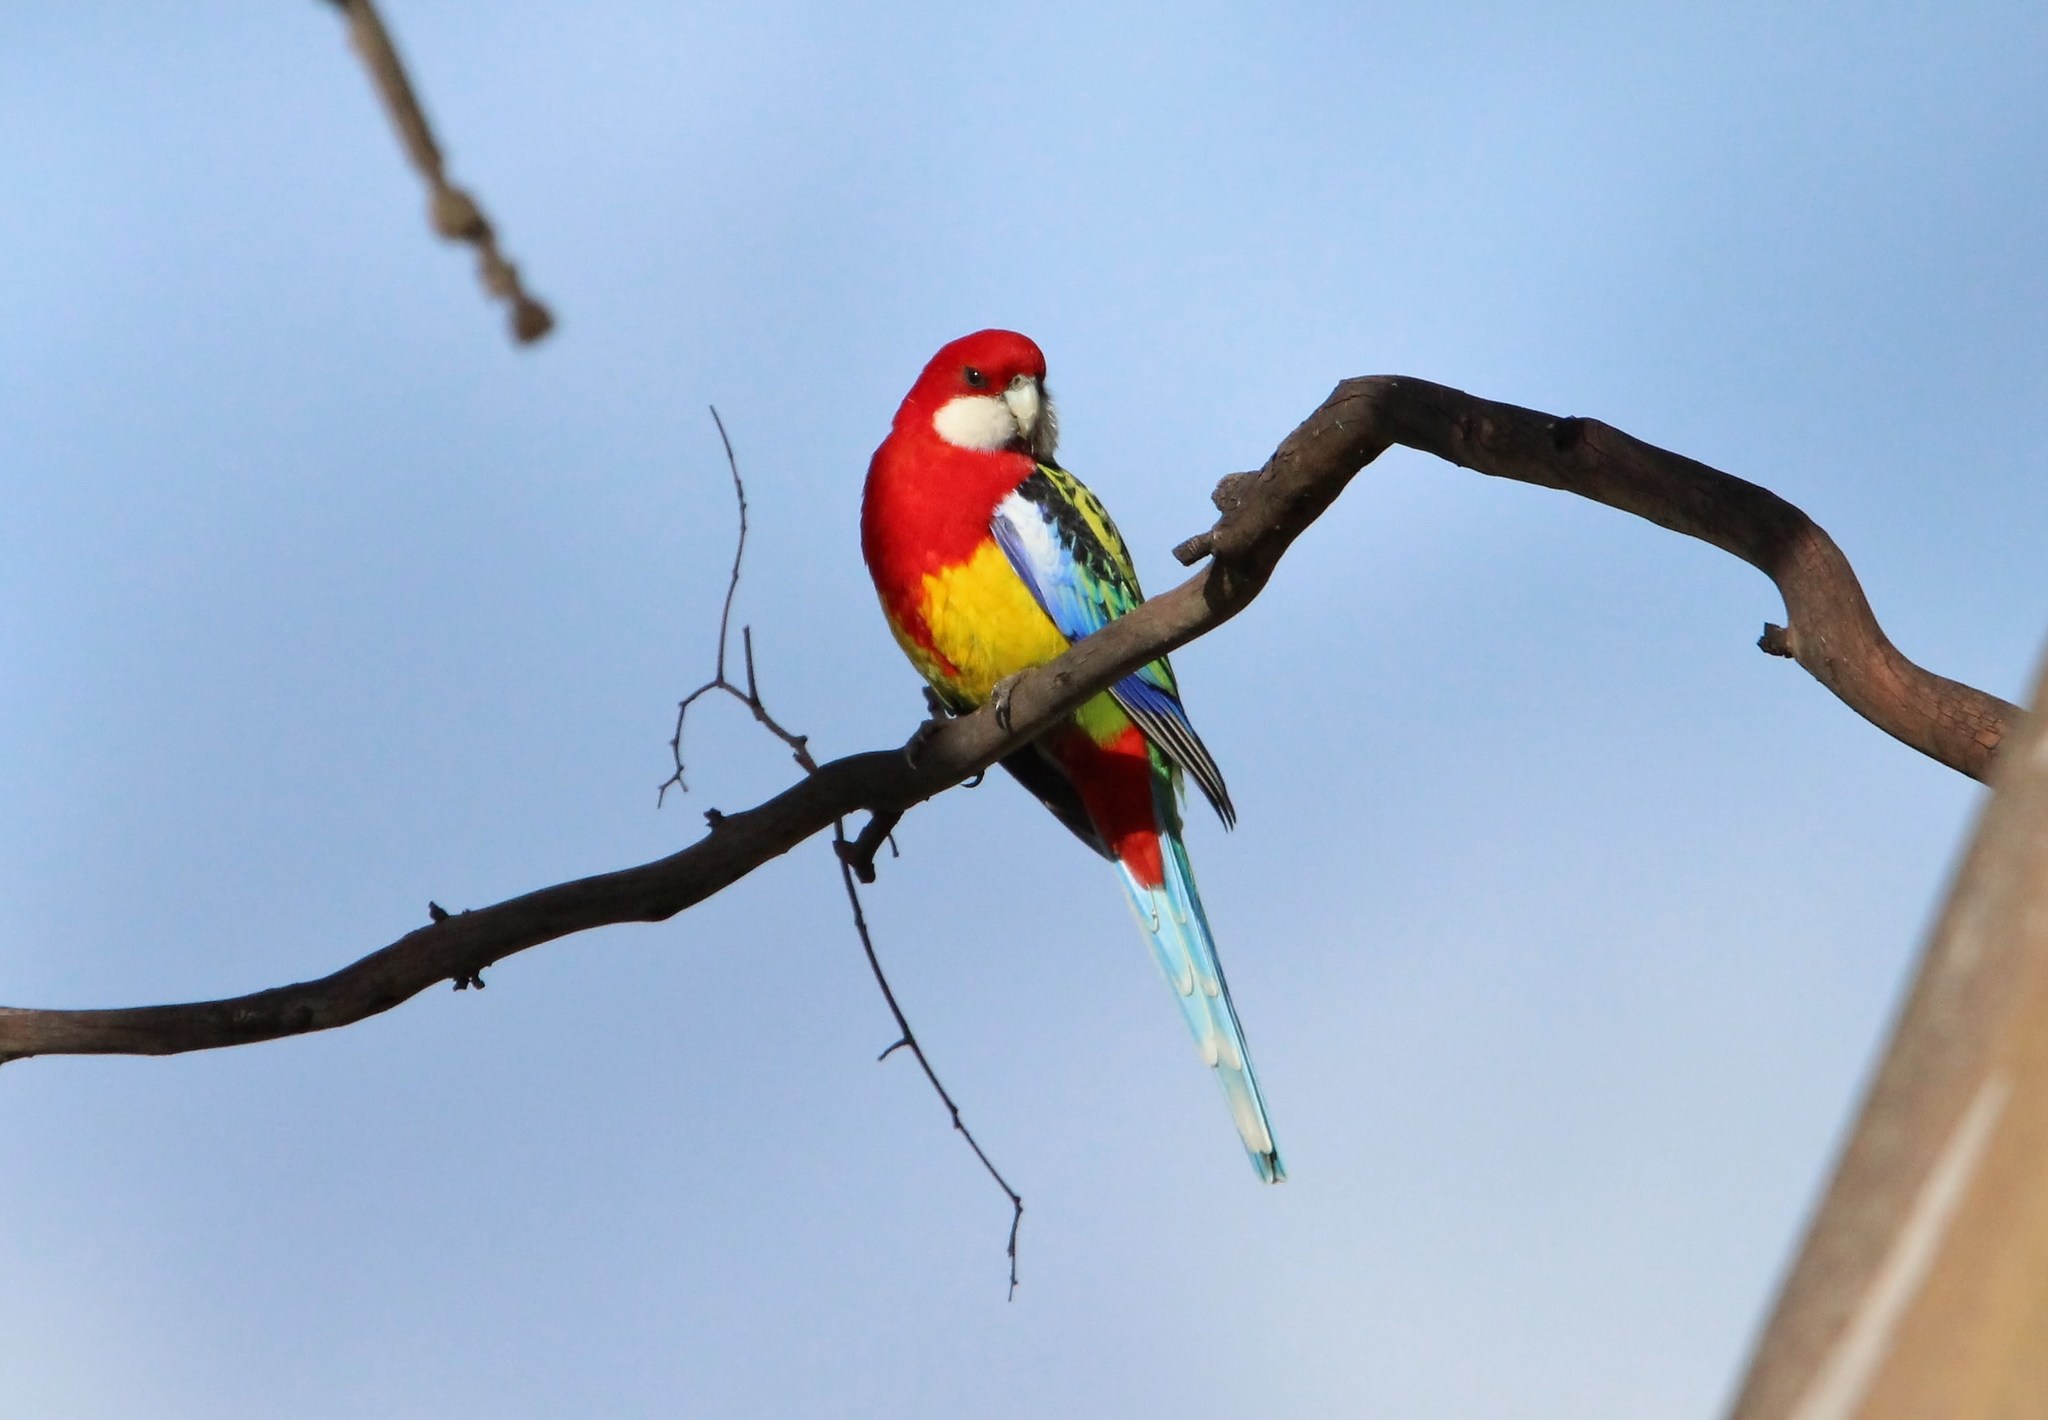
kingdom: Animalia
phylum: Chordata
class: Aves
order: Psittaciformes
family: Psittacidae
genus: Platycercus
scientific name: Platycercus eximius
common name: Eastern rosella
